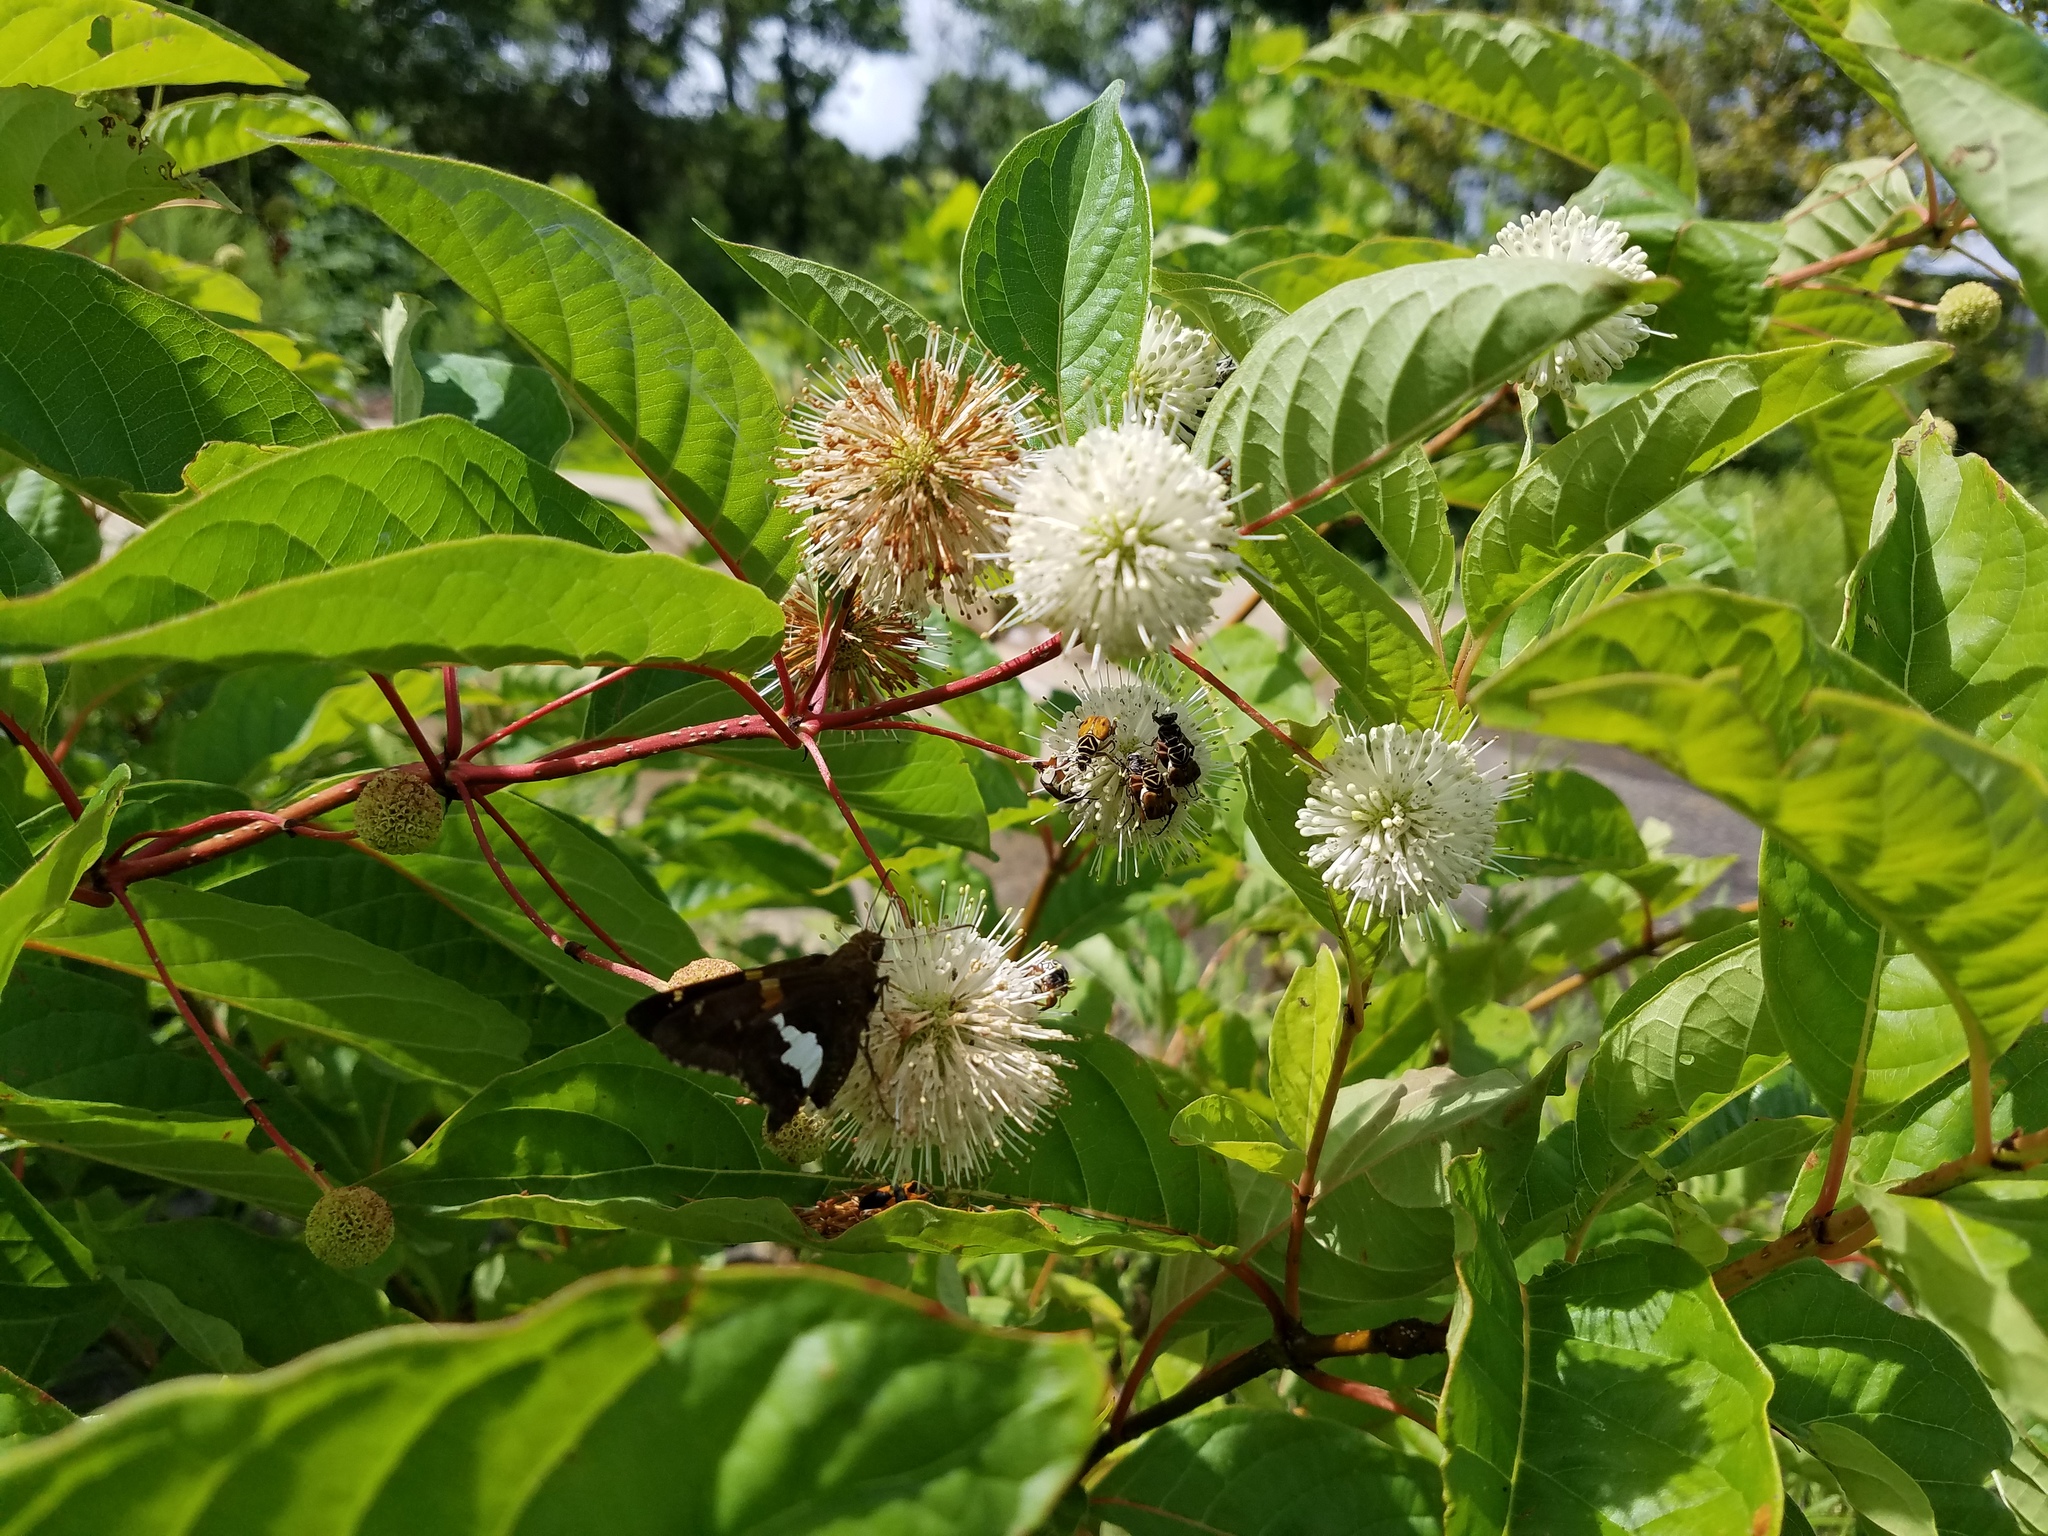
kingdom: Animalia
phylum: Arthropoda
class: Insecta
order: Lepidoptera
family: Hesperiidae
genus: Epargyreus
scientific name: Epargyreus clarus
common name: Silver-spotted skipper
